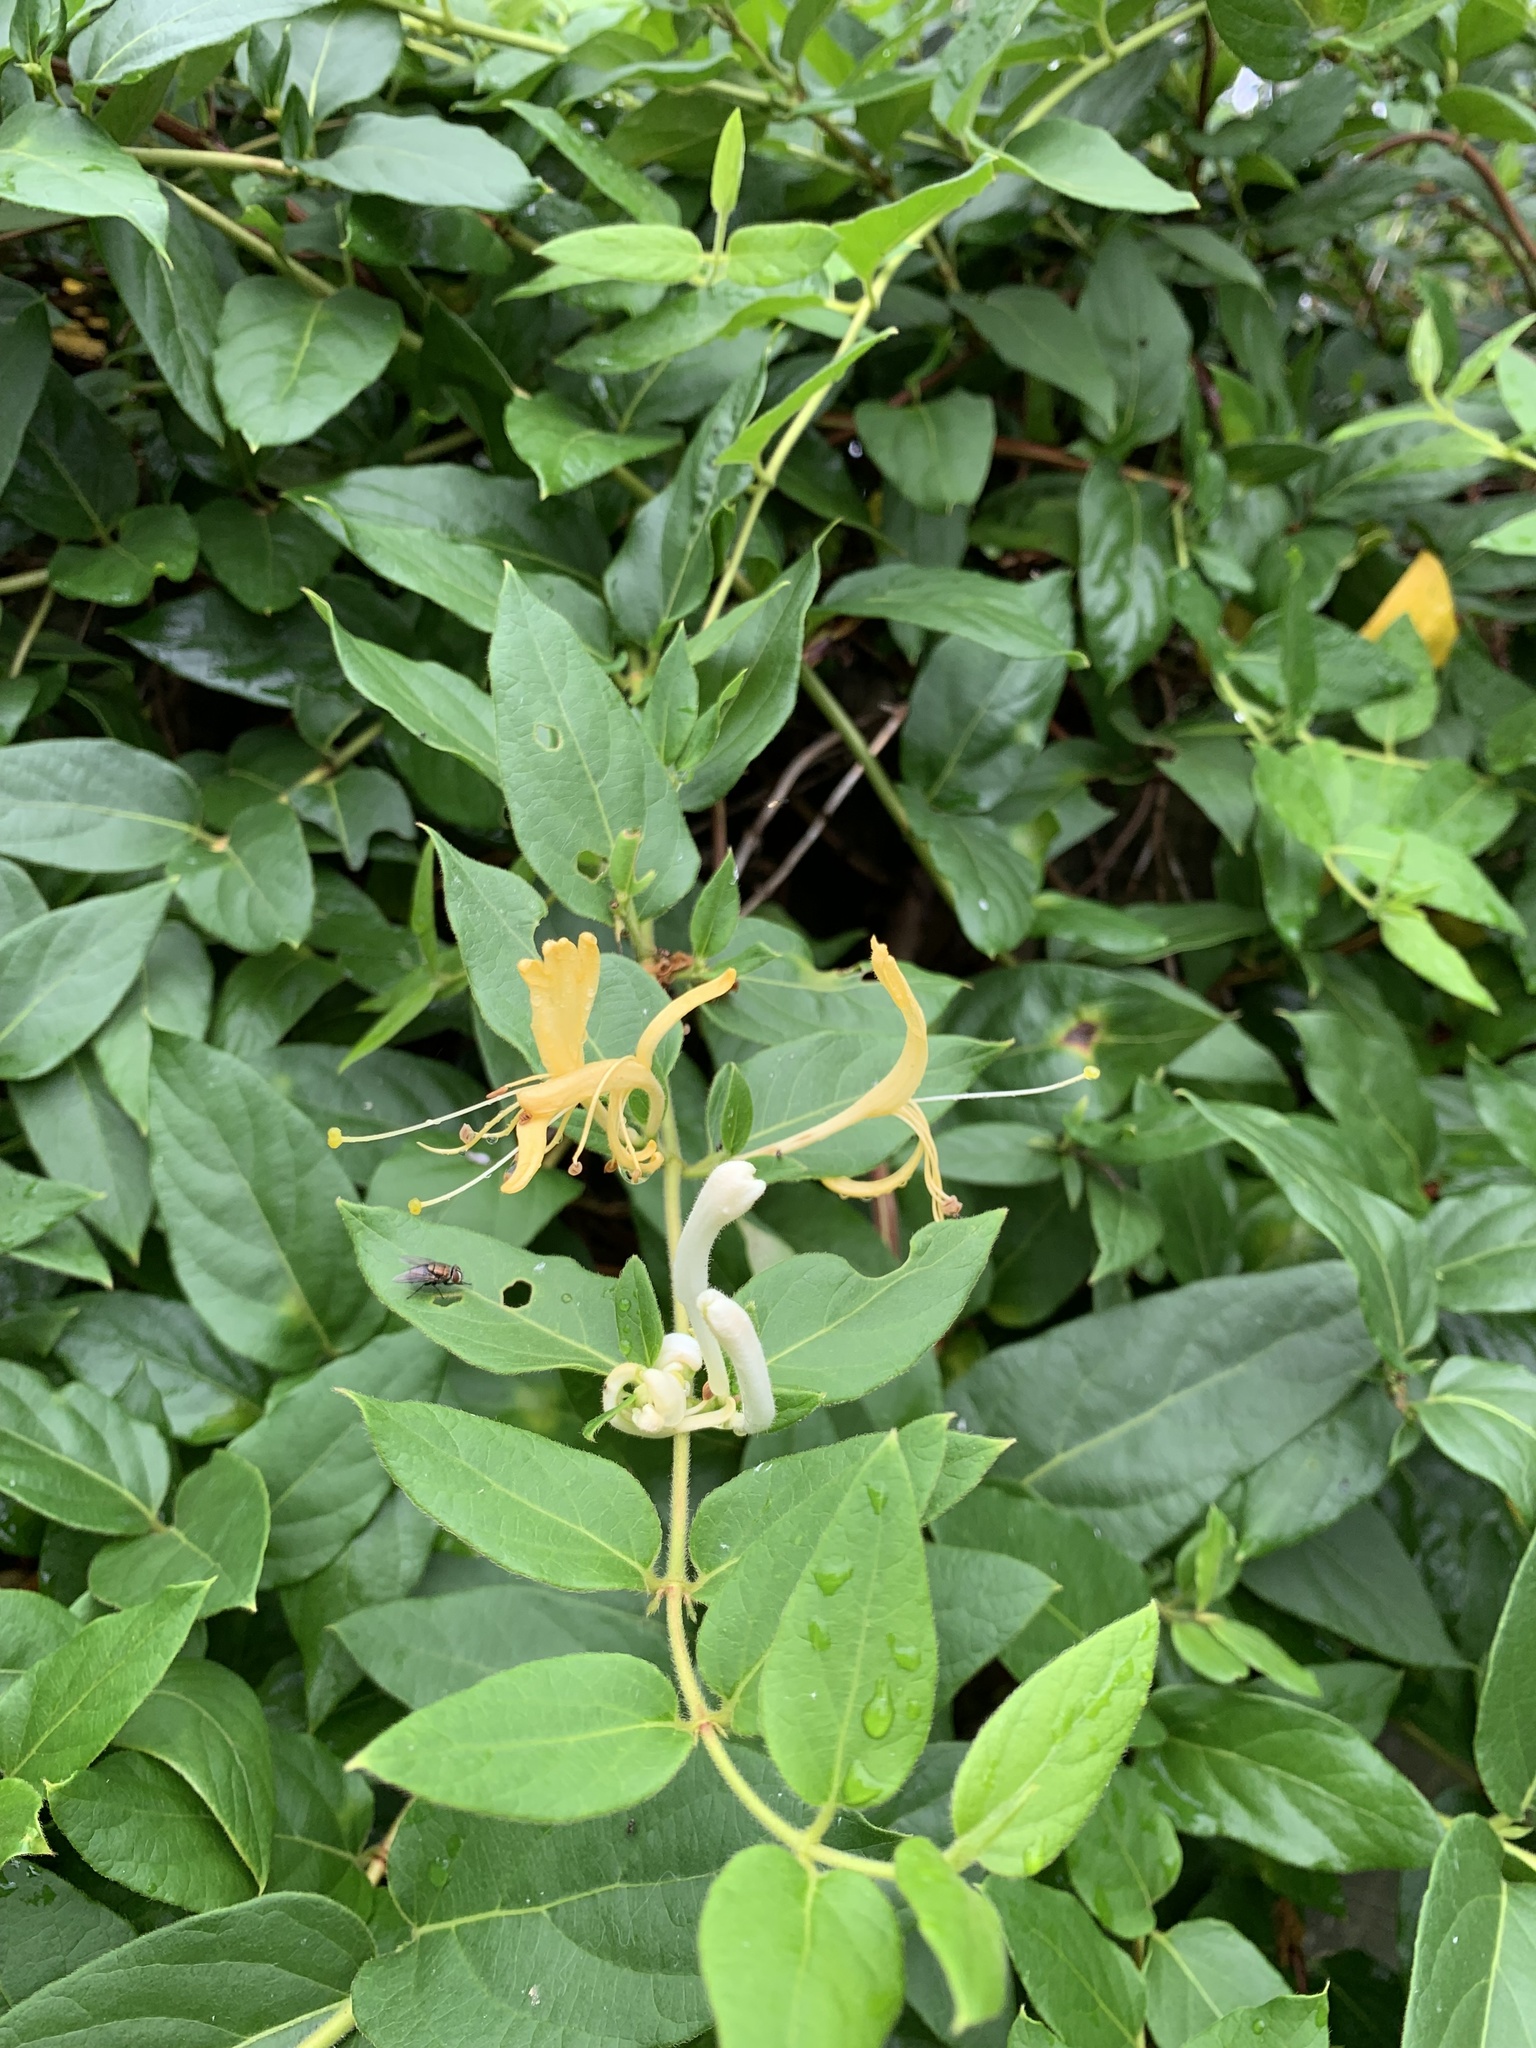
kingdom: Plantae
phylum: Tracheophyta
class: Magnoliopsida
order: Dipsacales
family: Caprifoliaceae
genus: Lonicera
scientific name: Lonicera japonica
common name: Japanese honeysuckle
